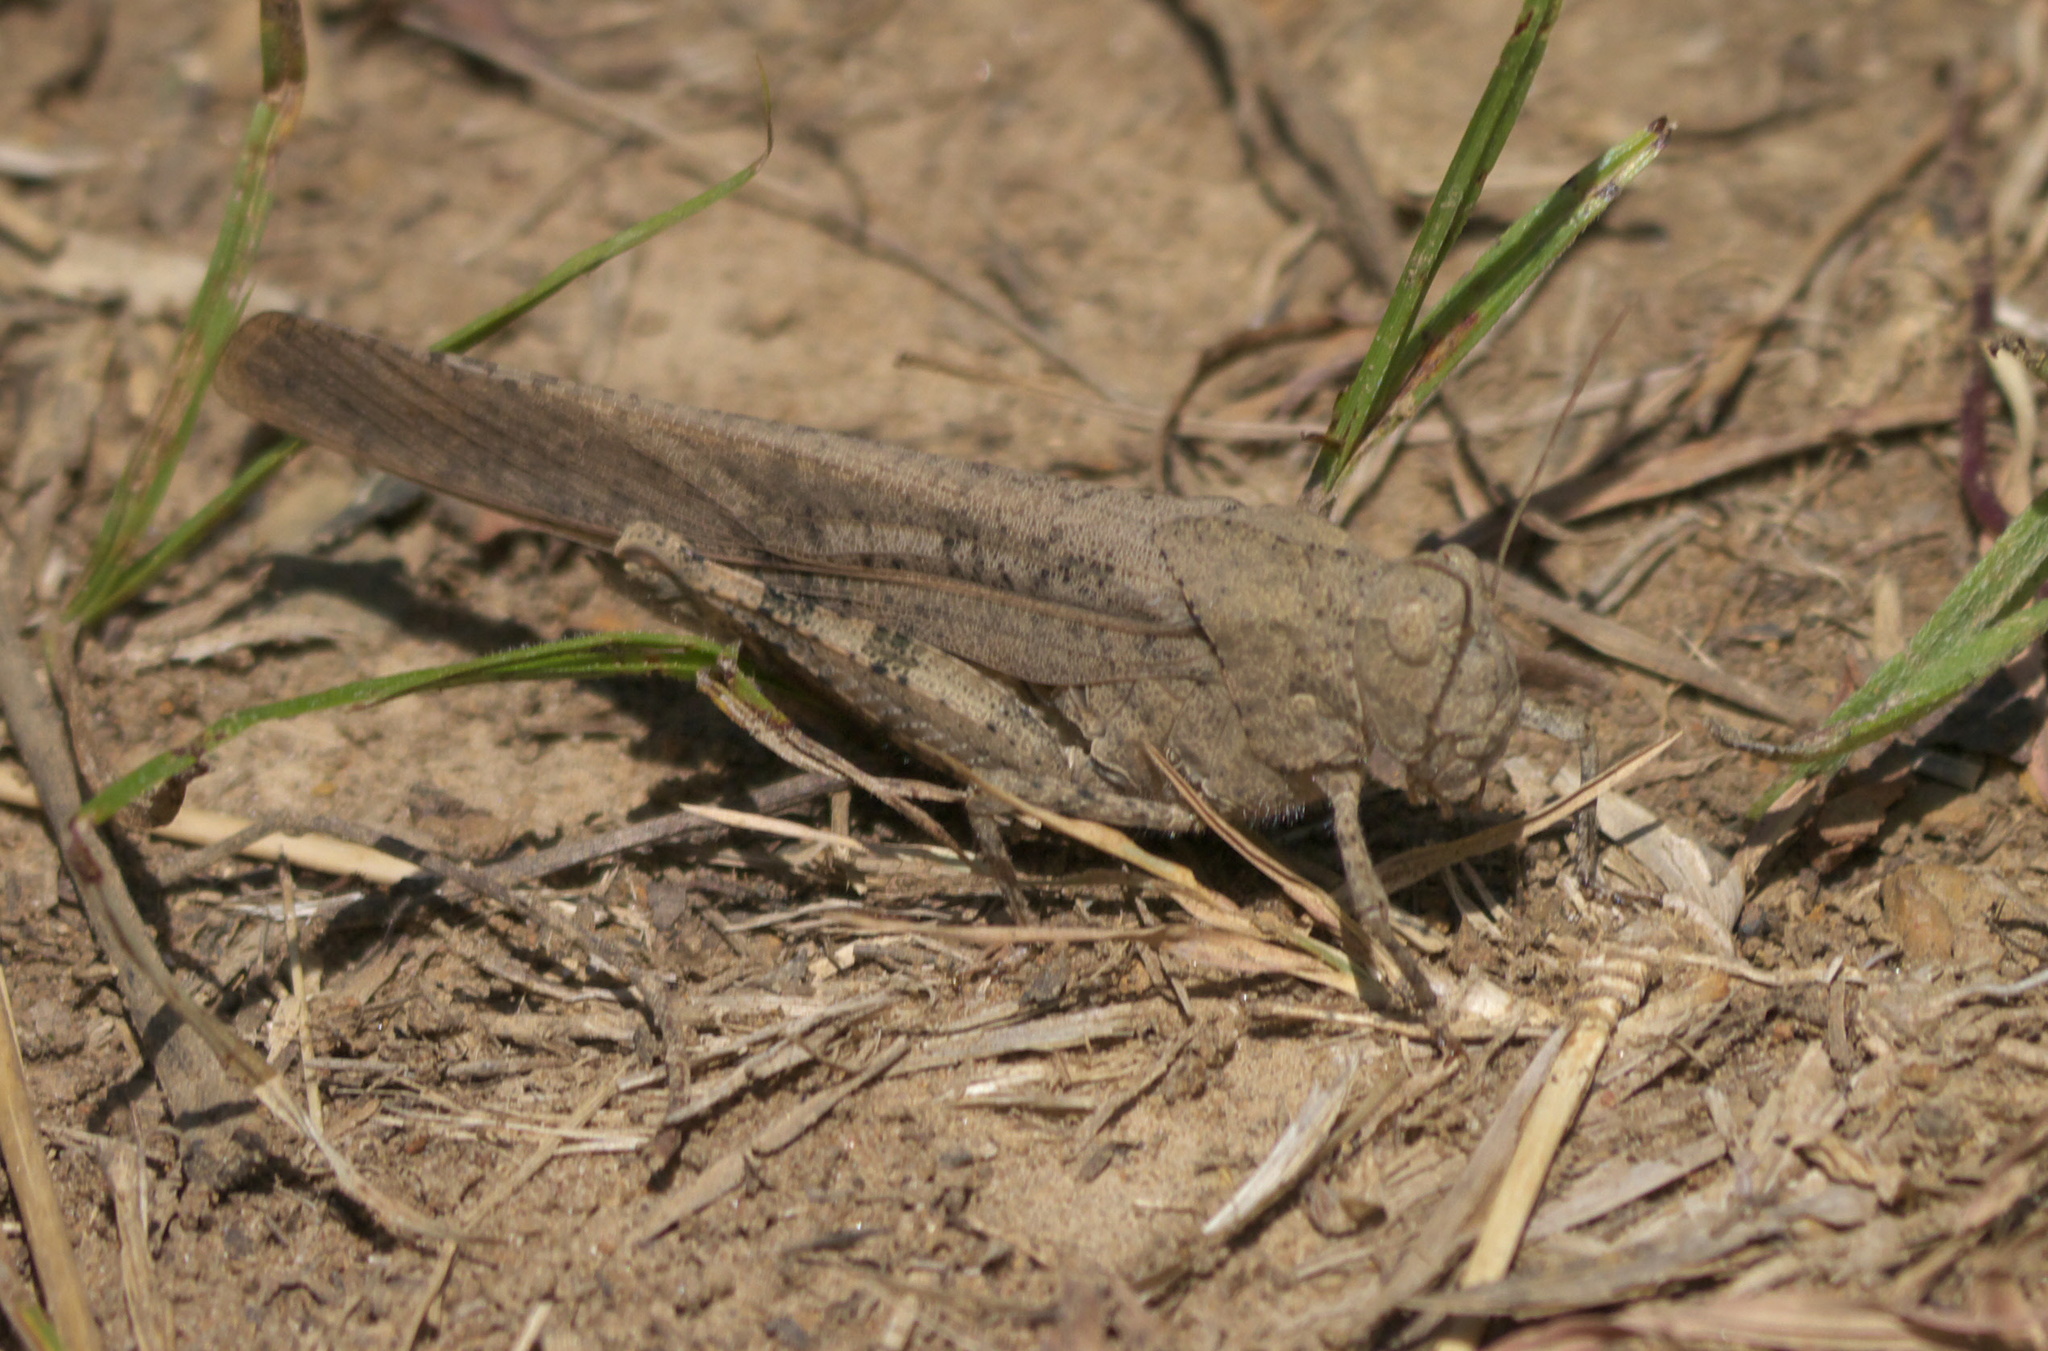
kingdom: Animalia
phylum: Arthropoda
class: Insecta
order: Orthoptera
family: Acrididae
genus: Dissosteira
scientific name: Dissosteira carolina
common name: Carolina grasshopper
